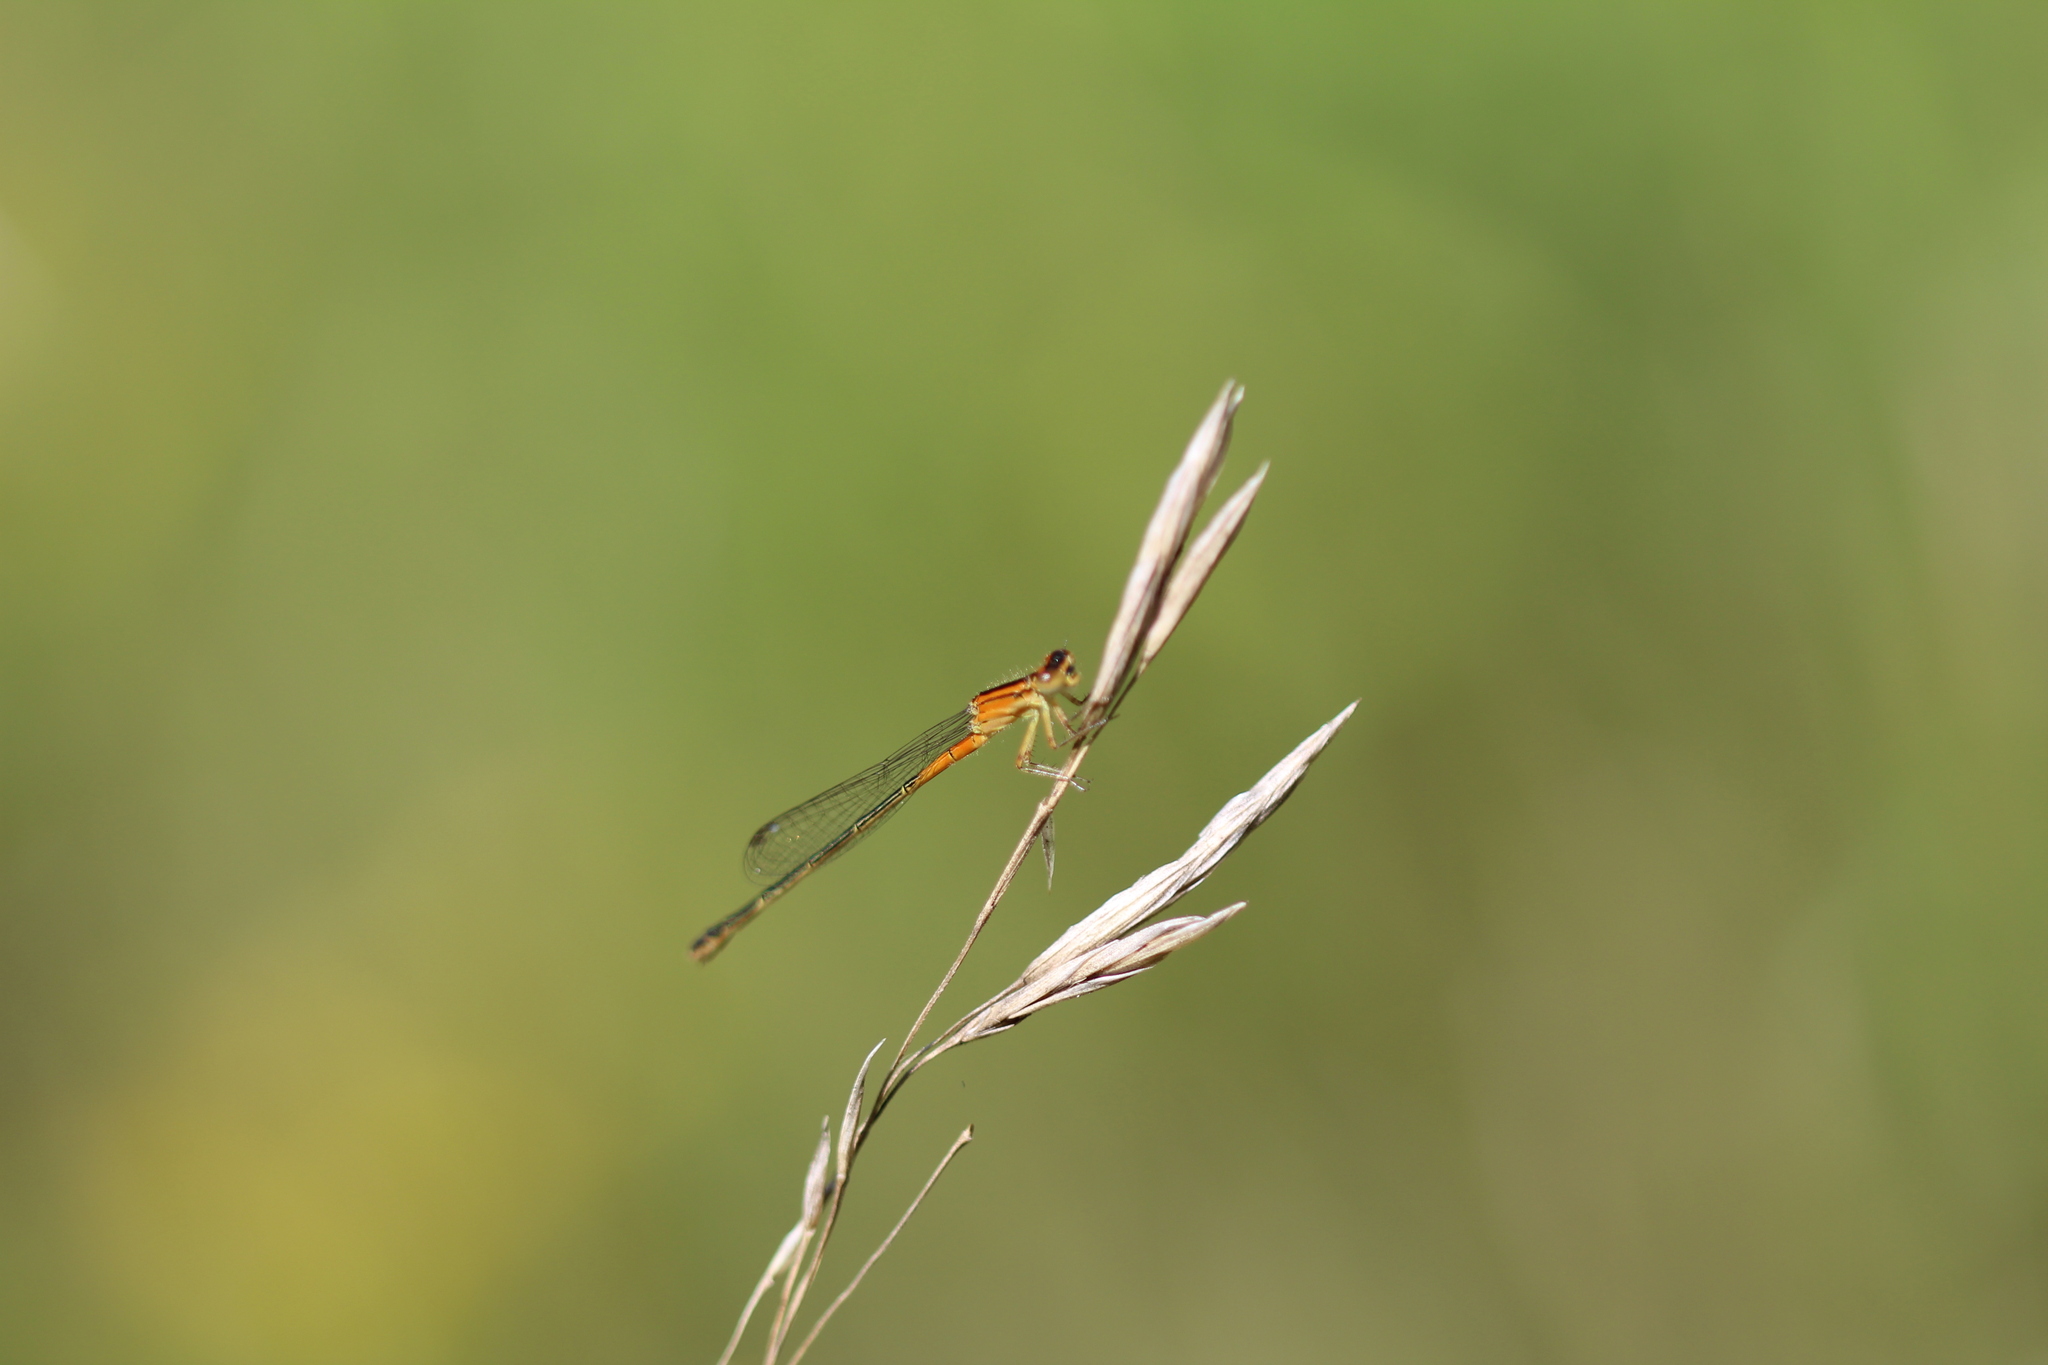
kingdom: Animalia
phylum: Arthropoda
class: Insecta
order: Odonata
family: Coenagrionidae
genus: Ischnura
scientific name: Ischnura verticalis
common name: Eastern forktail
